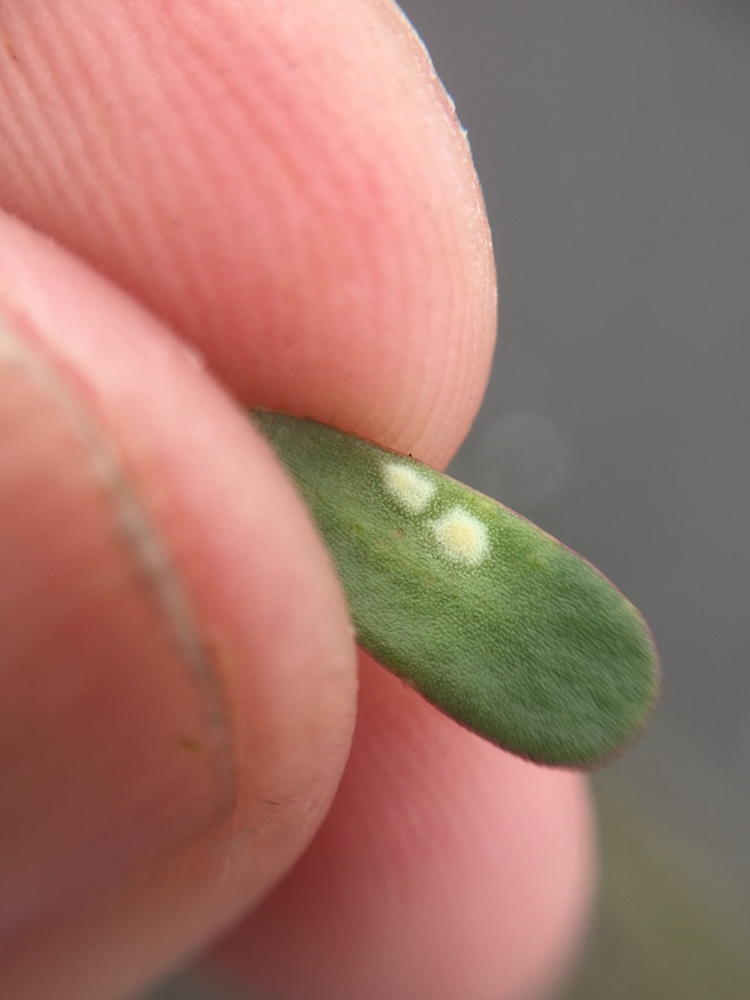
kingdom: Chromista
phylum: Oomycota
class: Peronosporea
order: Albuginales
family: Albuginaceae
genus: Wilsoniana
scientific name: Wilsoniana portulacae
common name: Purslane white rust
